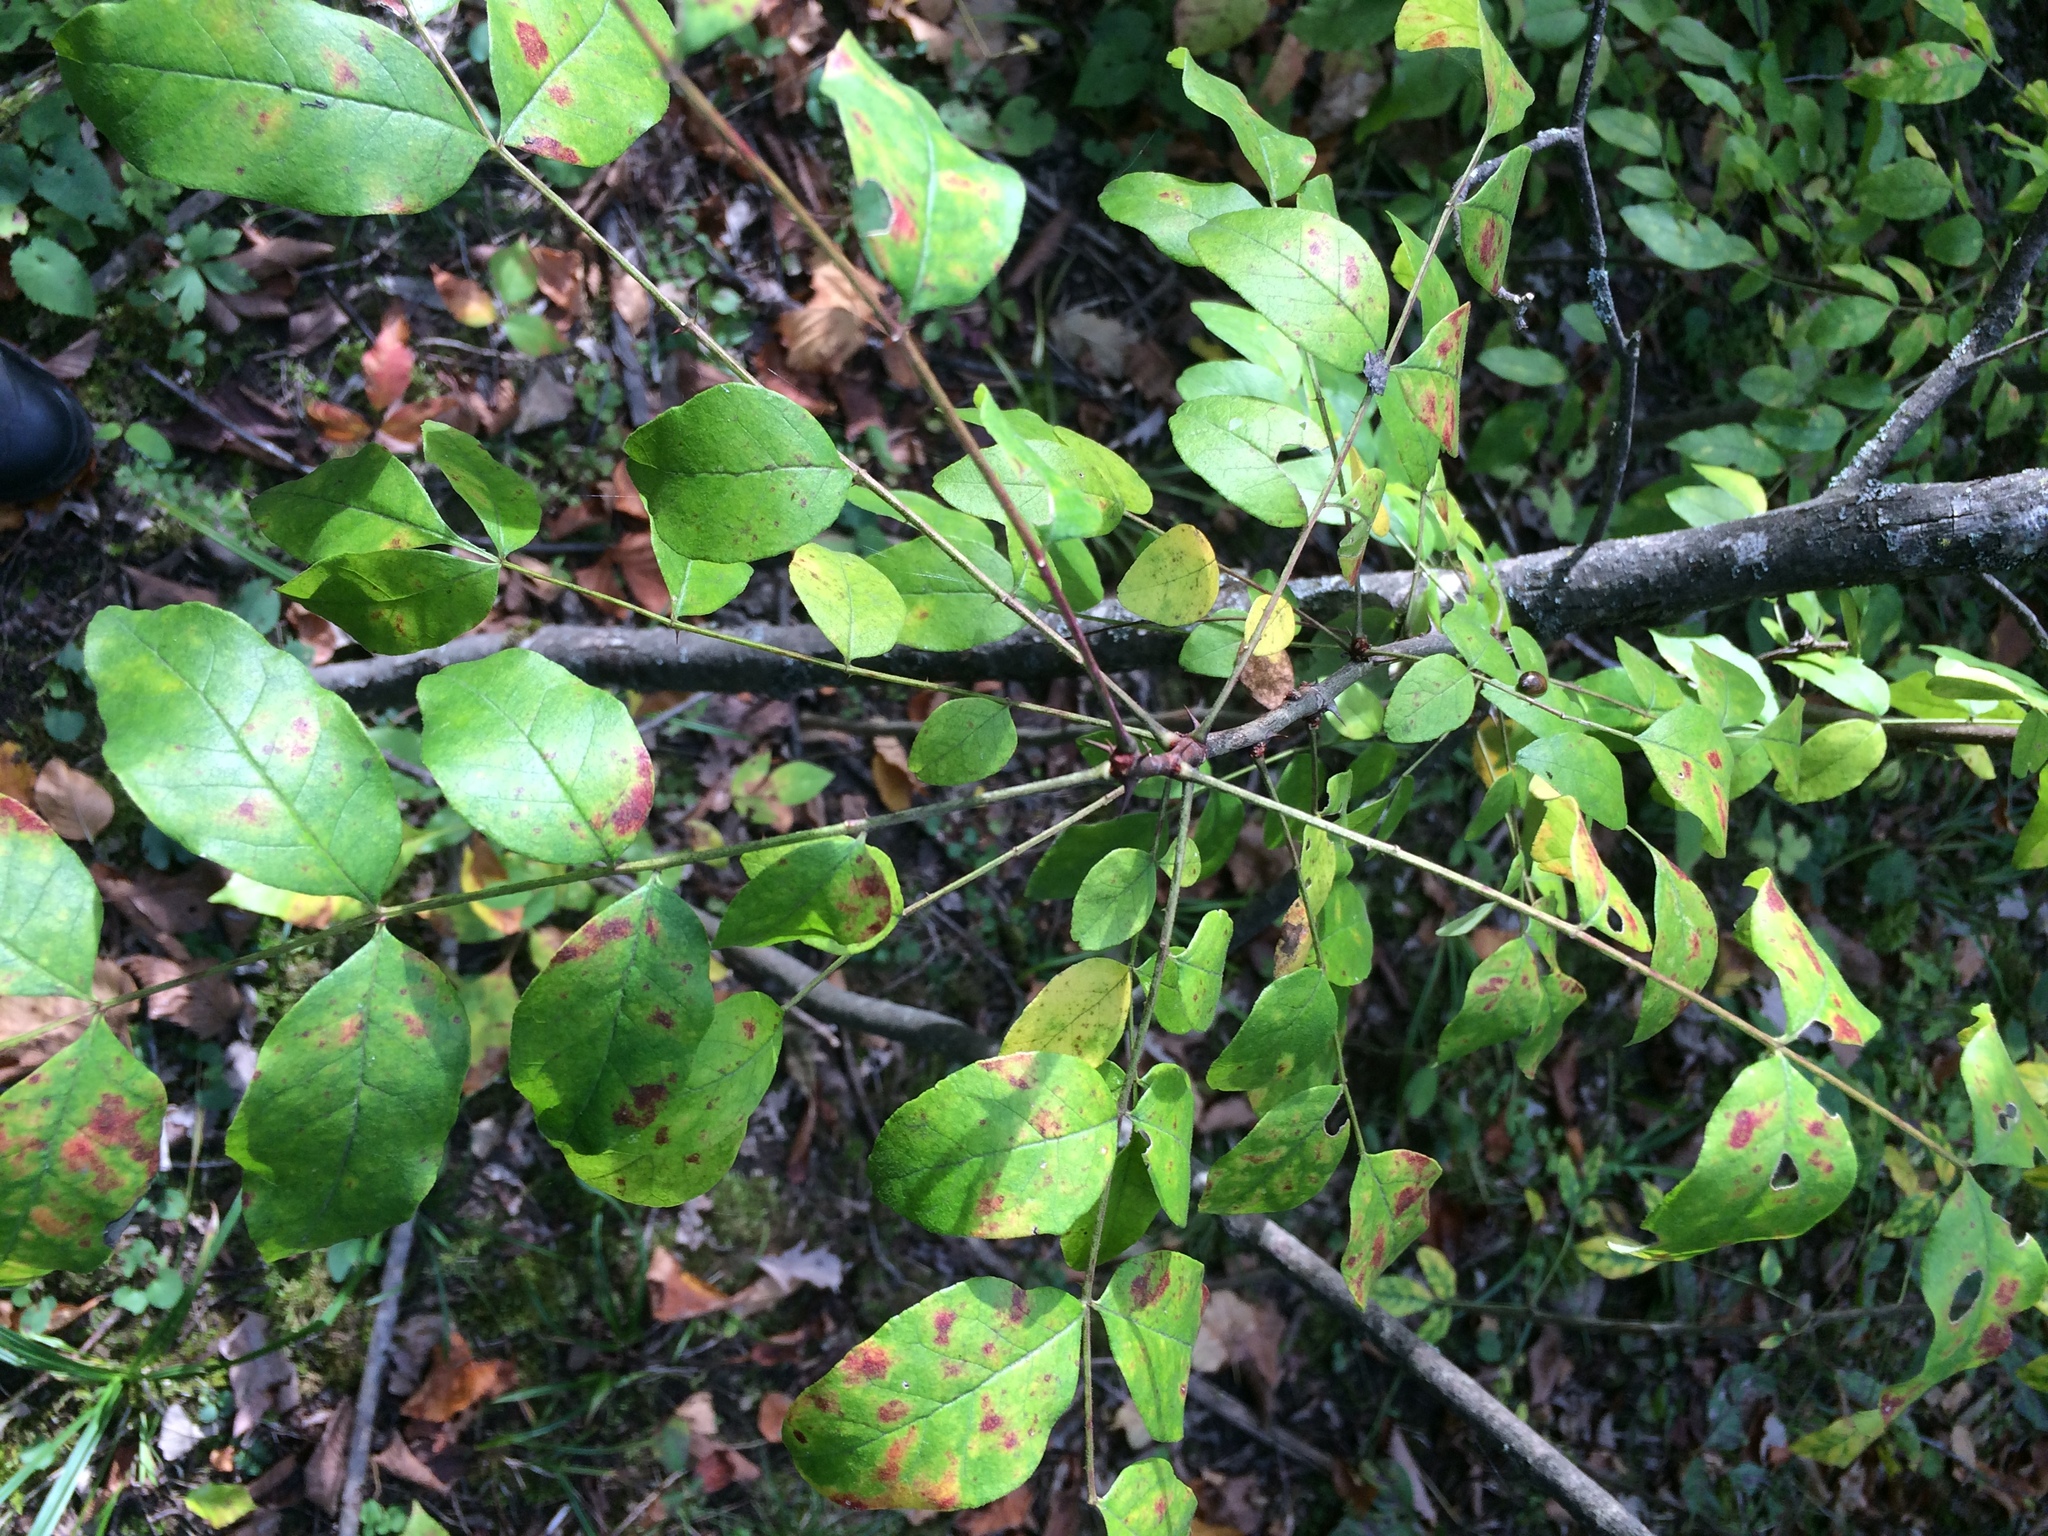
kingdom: Plantae
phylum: Tracheophyta
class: Magnoliopsida
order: Sapindales
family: Rutaceae
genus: Zanthoxylum
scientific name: Zanthoxylum americanum
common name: Northern prickly-ash
